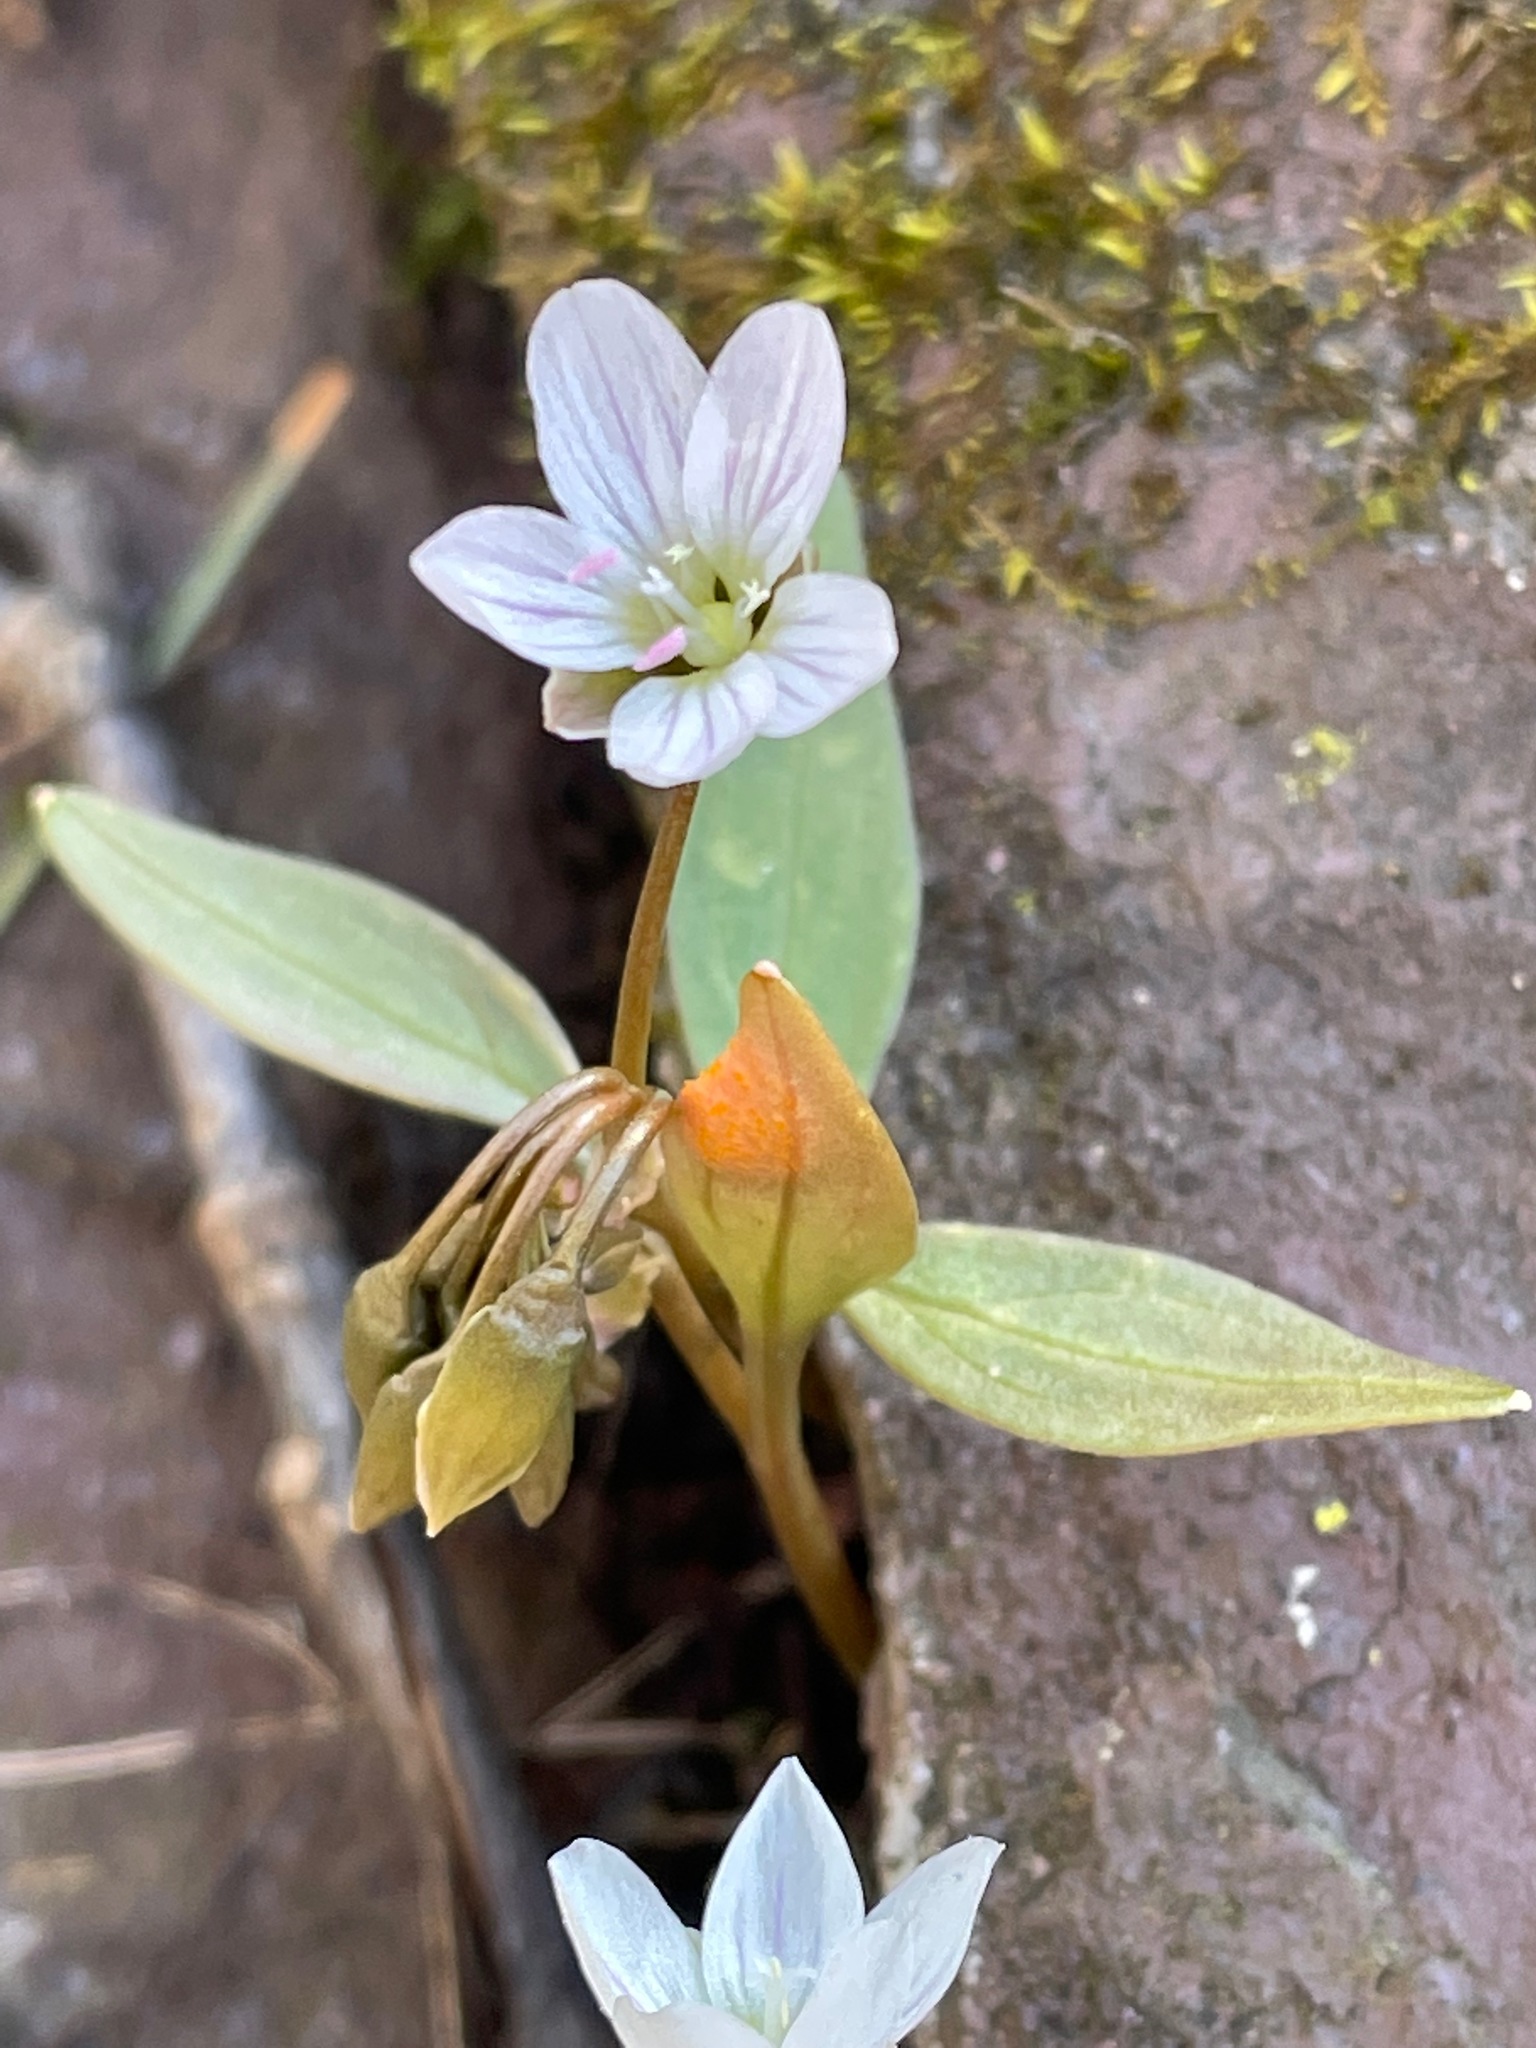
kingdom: Plantae
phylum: Tracheophyta
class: Magnoliopsida
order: Caryophyllales
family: Montiaceae
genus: Claytonia
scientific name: Claytonia caroliniana
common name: Carolina spring beauty
